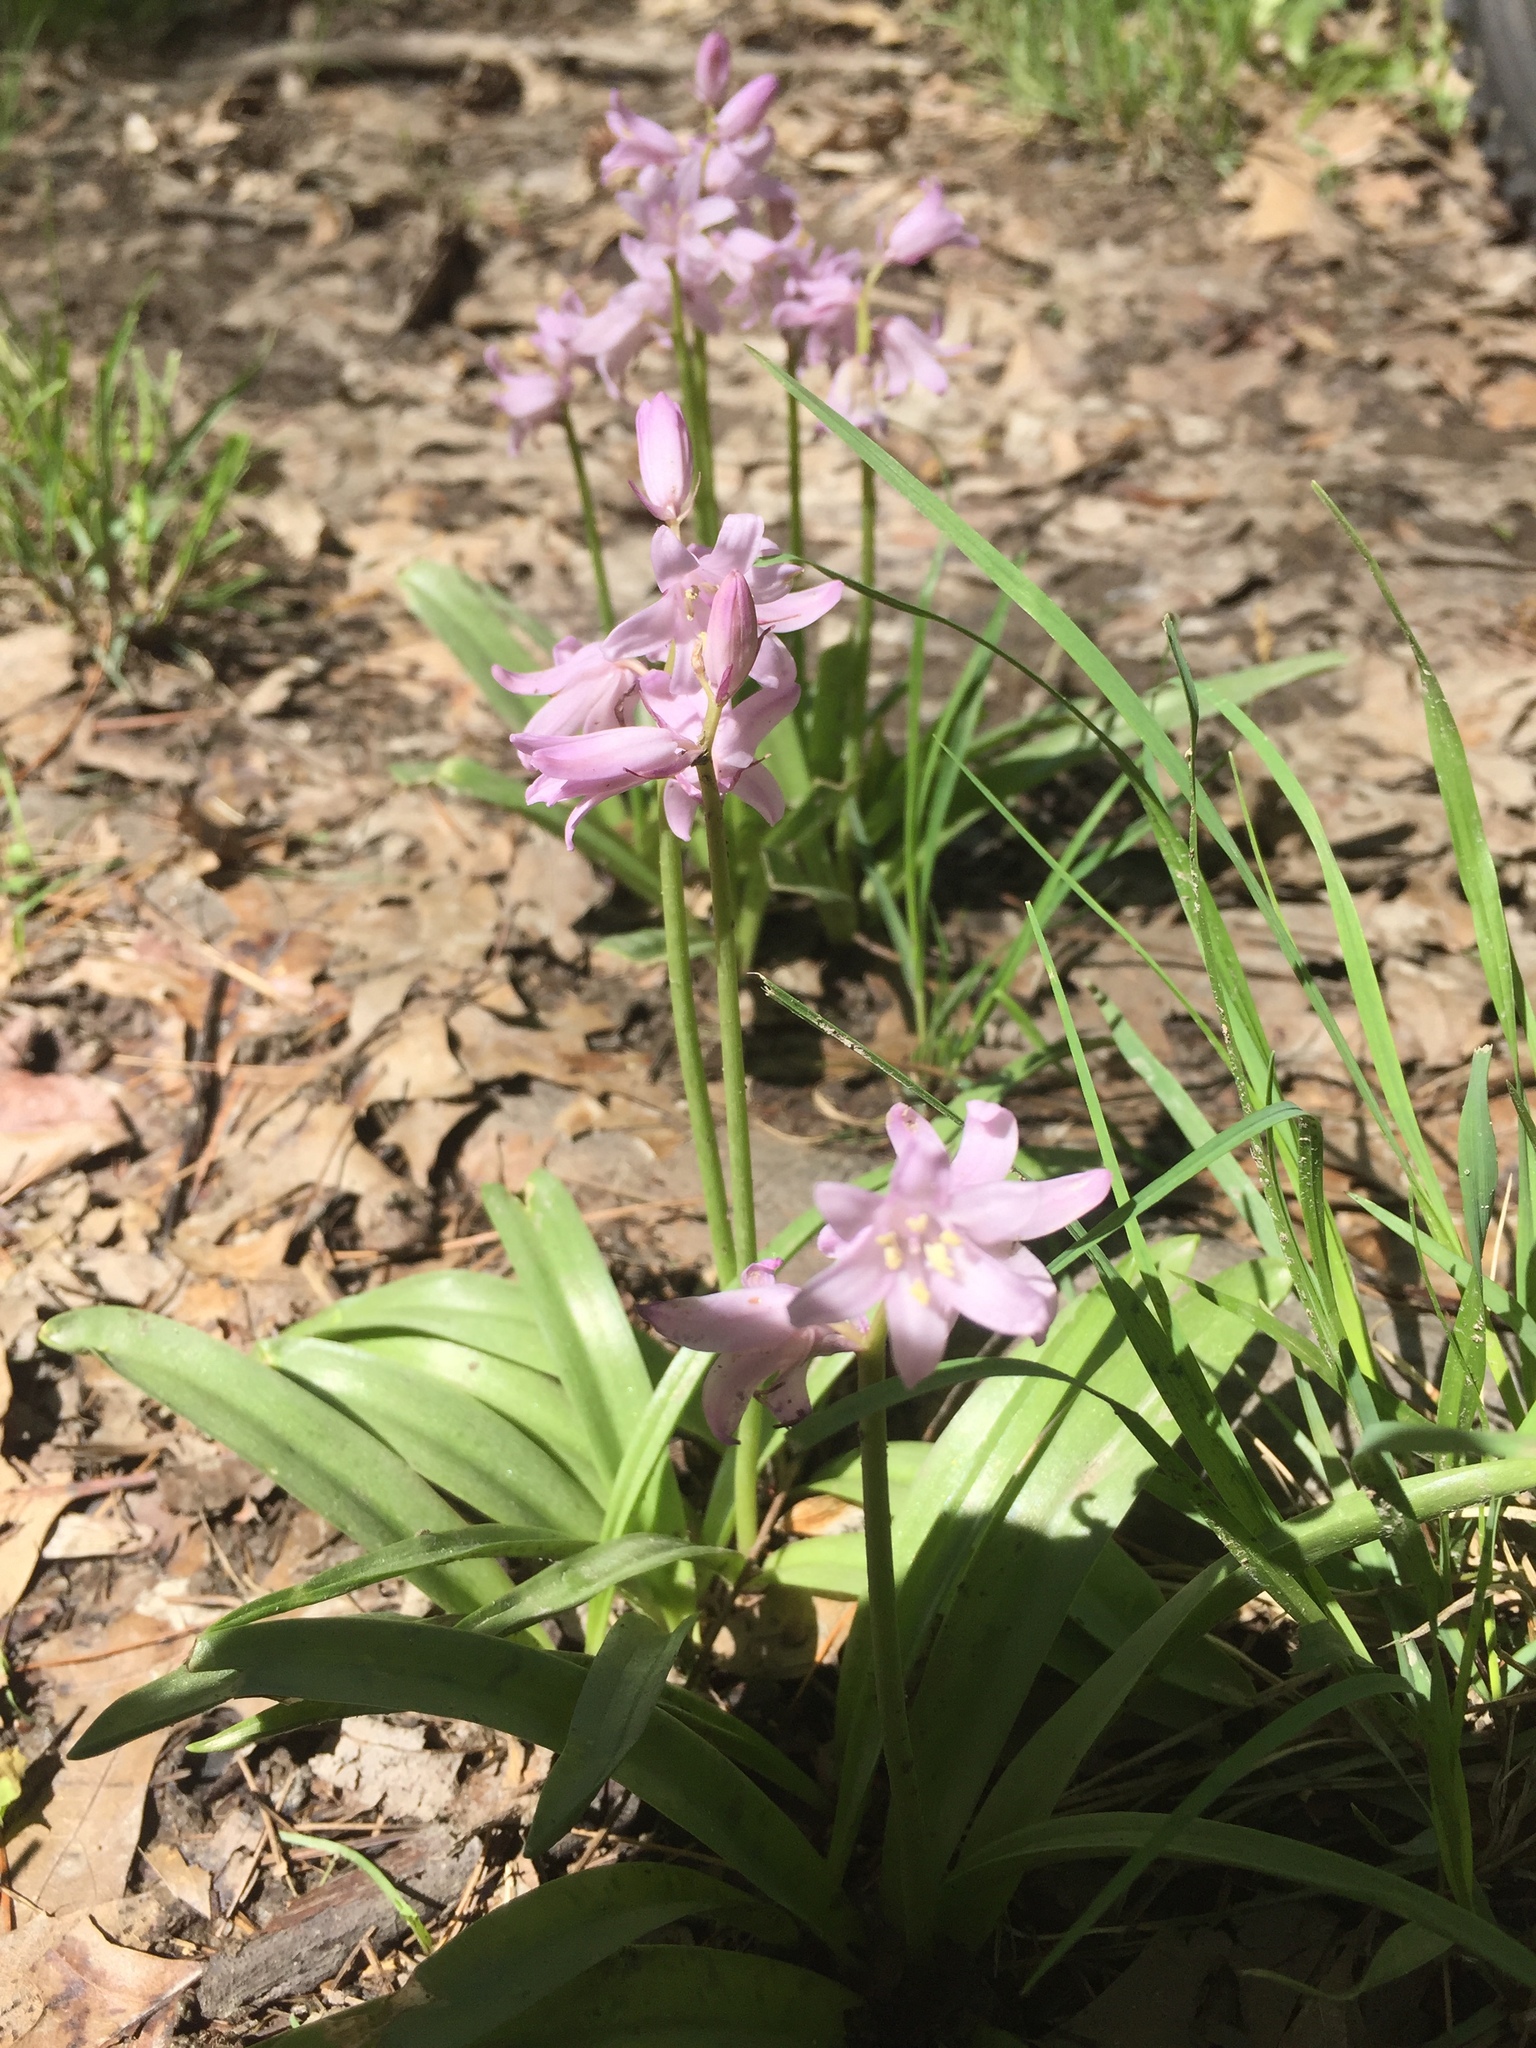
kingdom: Plantae
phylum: Tracheophyta
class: Liliopsida
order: Asparagales
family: Asparagaceae
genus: Hyacinthoides
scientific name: Hyacinthoides hispanica
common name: Spanish bluebell
